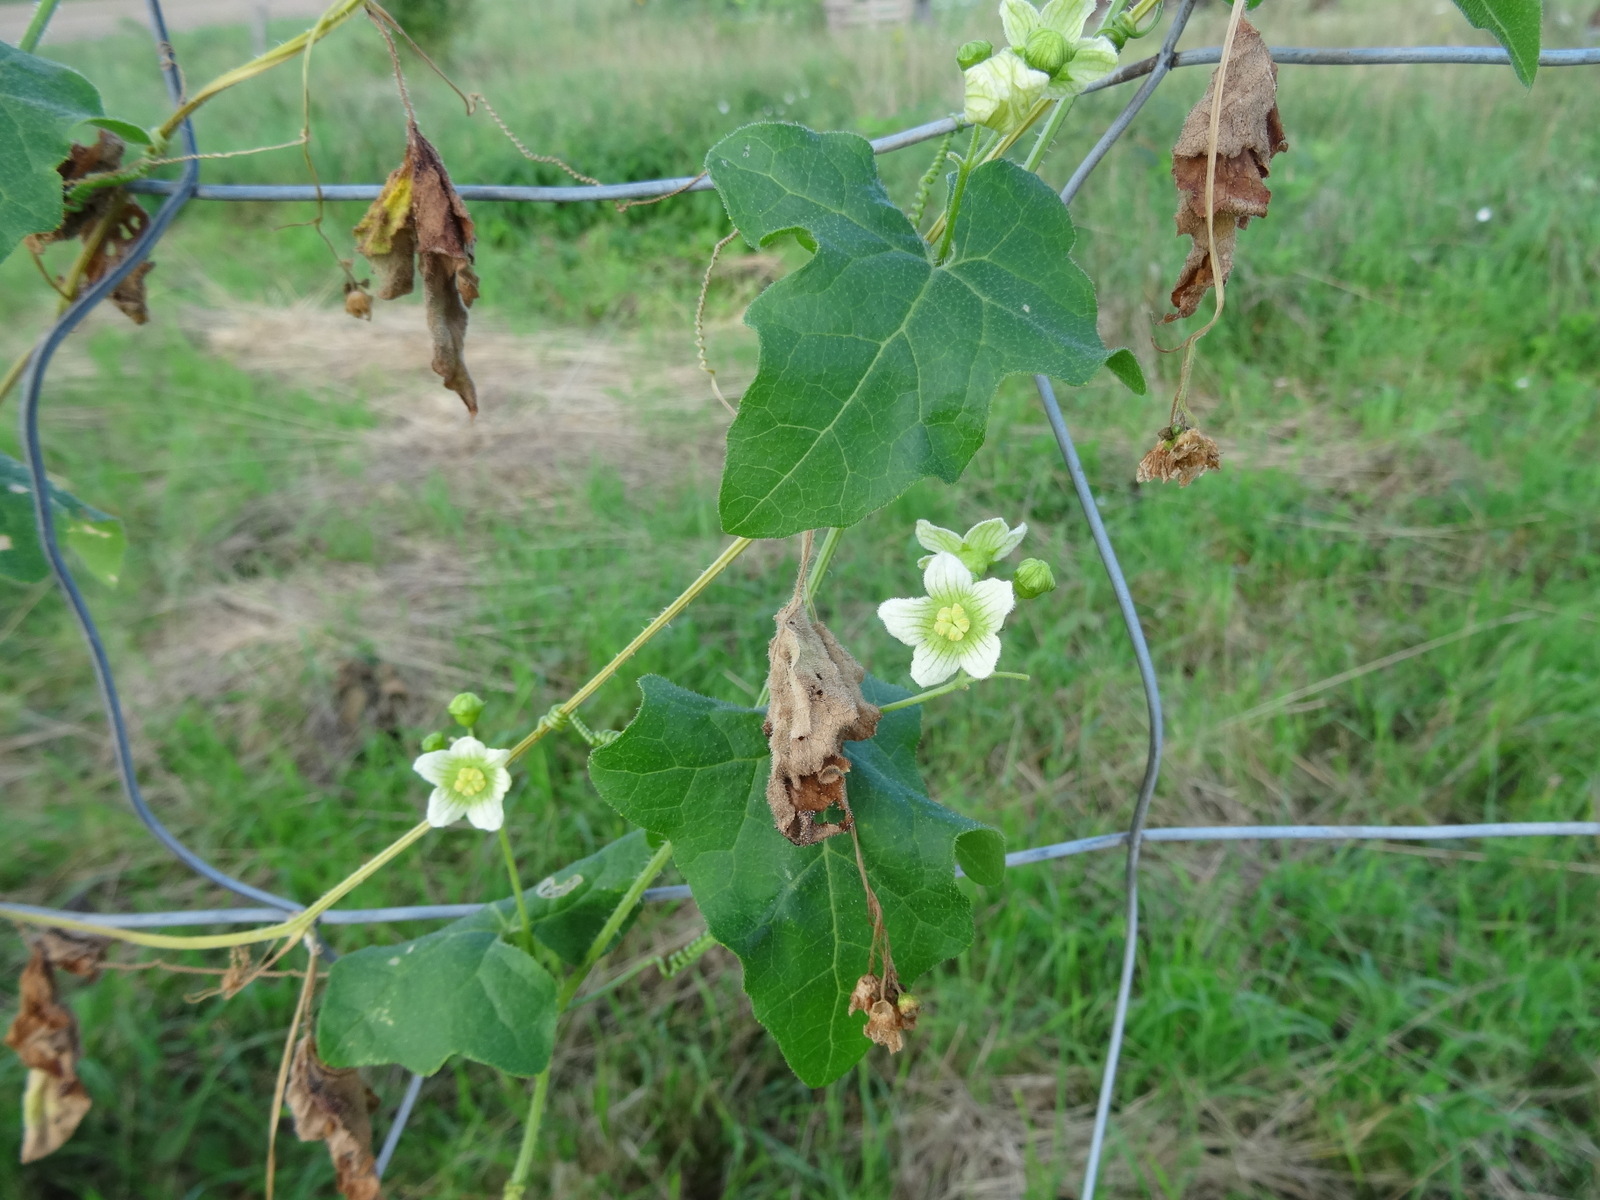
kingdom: Plantae
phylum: Tracheophyta
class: Magnoliopsida
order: Cucurbitales
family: Cucurbitaceae
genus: Bryonia
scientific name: Bryonia dioica
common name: White bryony
